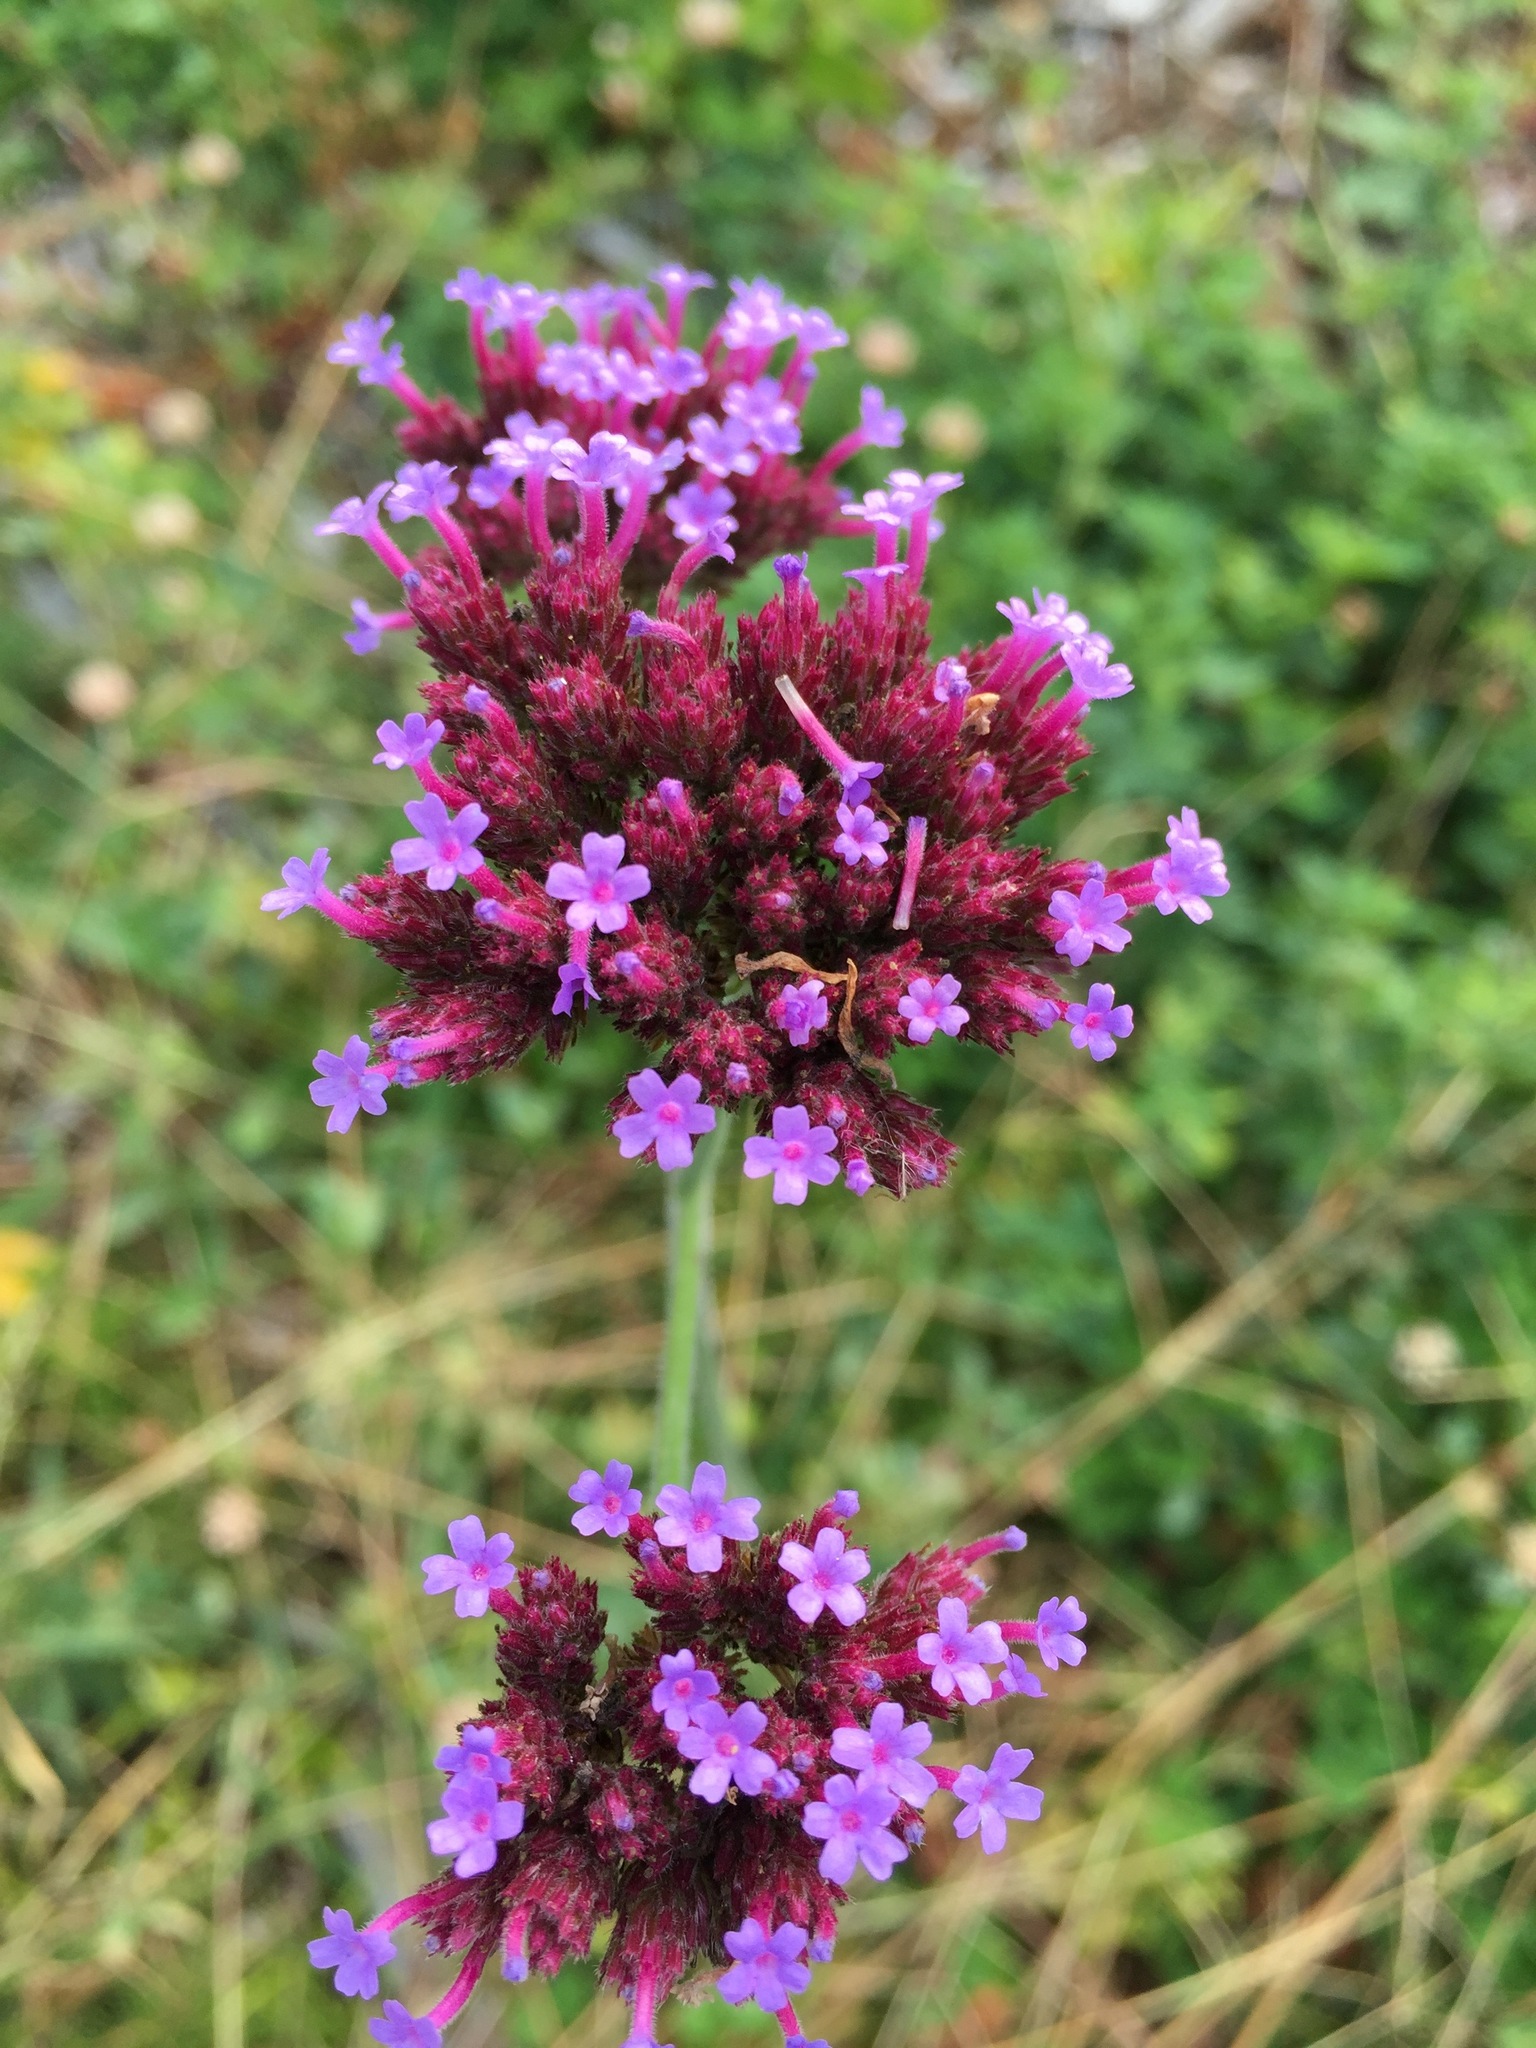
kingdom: Plantae
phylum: Tracheophyta
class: Magnoliopsida
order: Lamiales
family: Verbenaceae
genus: Verbena
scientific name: Verbena bonariensis
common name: Purpletop vervain
